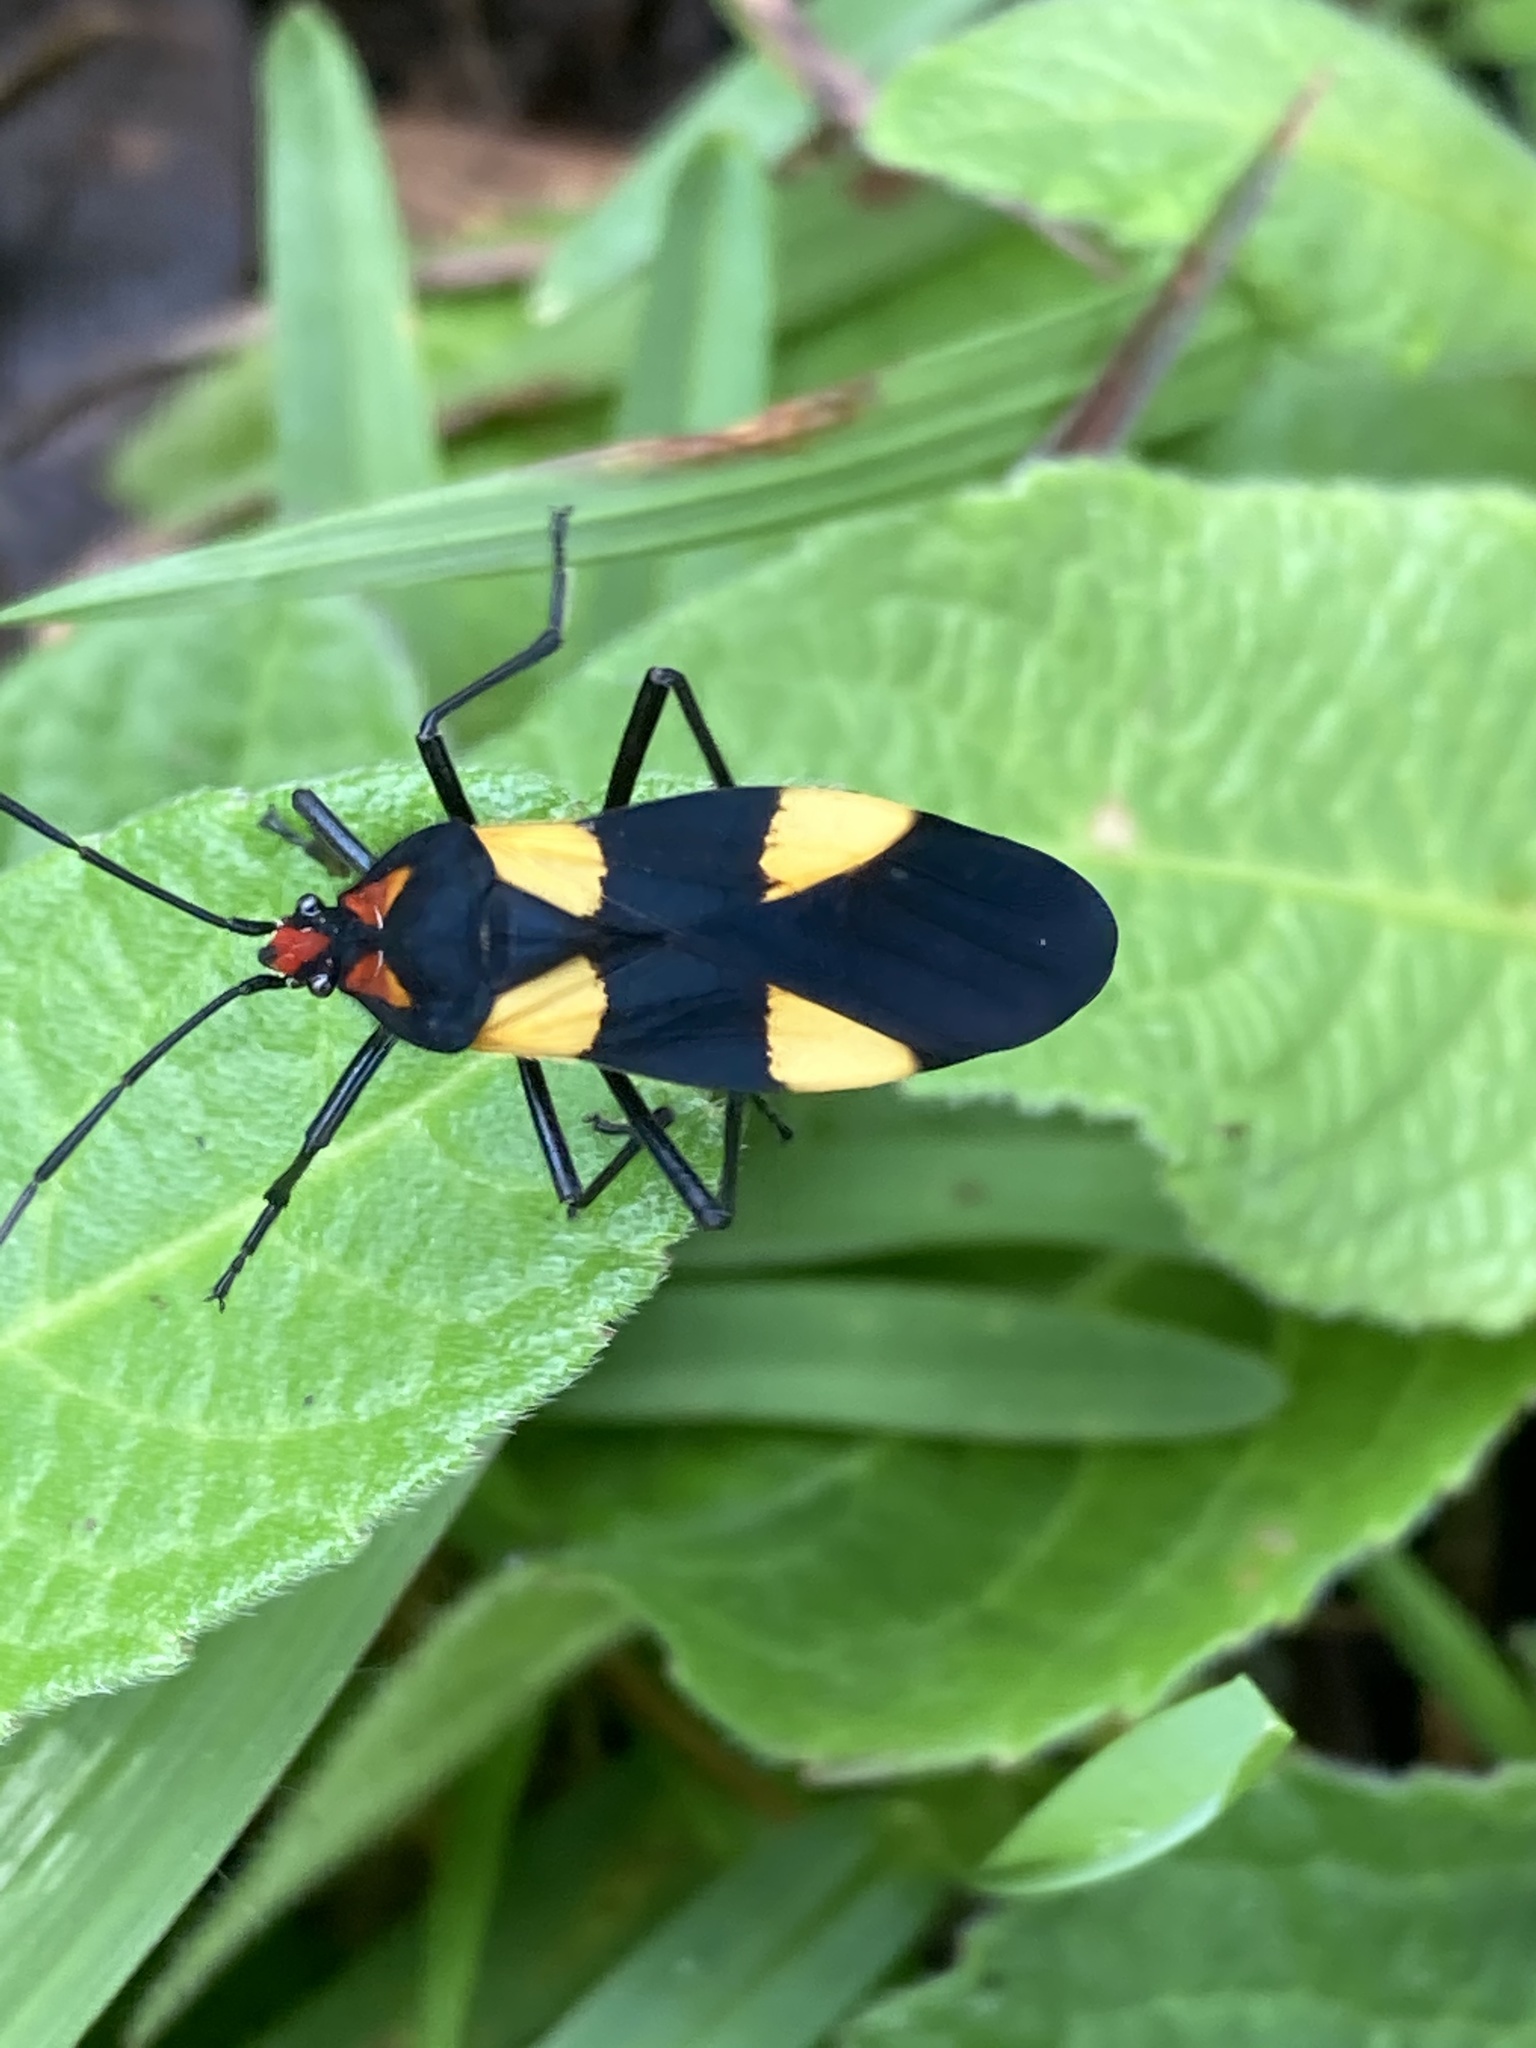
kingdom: Animalia
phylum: Arthropoda
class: Insecta
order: Hemiptera
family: Lygaeidae
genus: Oncopeltus
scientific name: Oncopeltus varicolor
